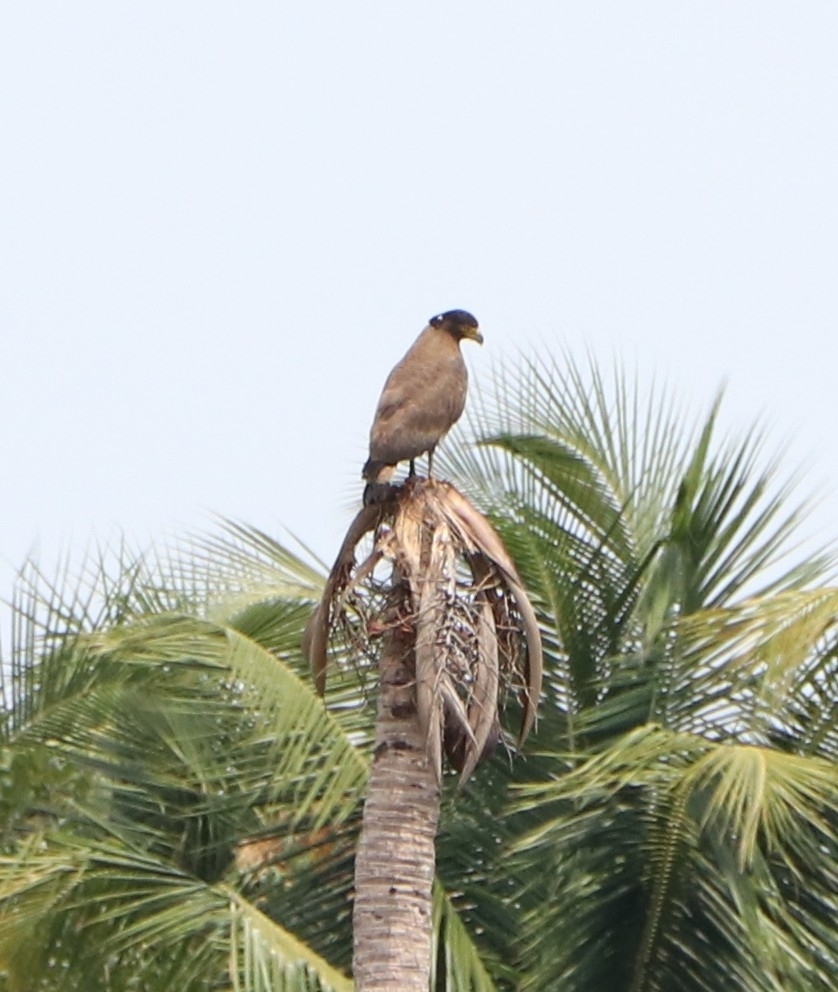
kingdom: Animalia
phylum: Chordata
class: Aves
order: Accipitriformes
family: Accipitridae
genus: Spilornis
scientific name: Spilornis cheela
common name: Crested serpent eagle
